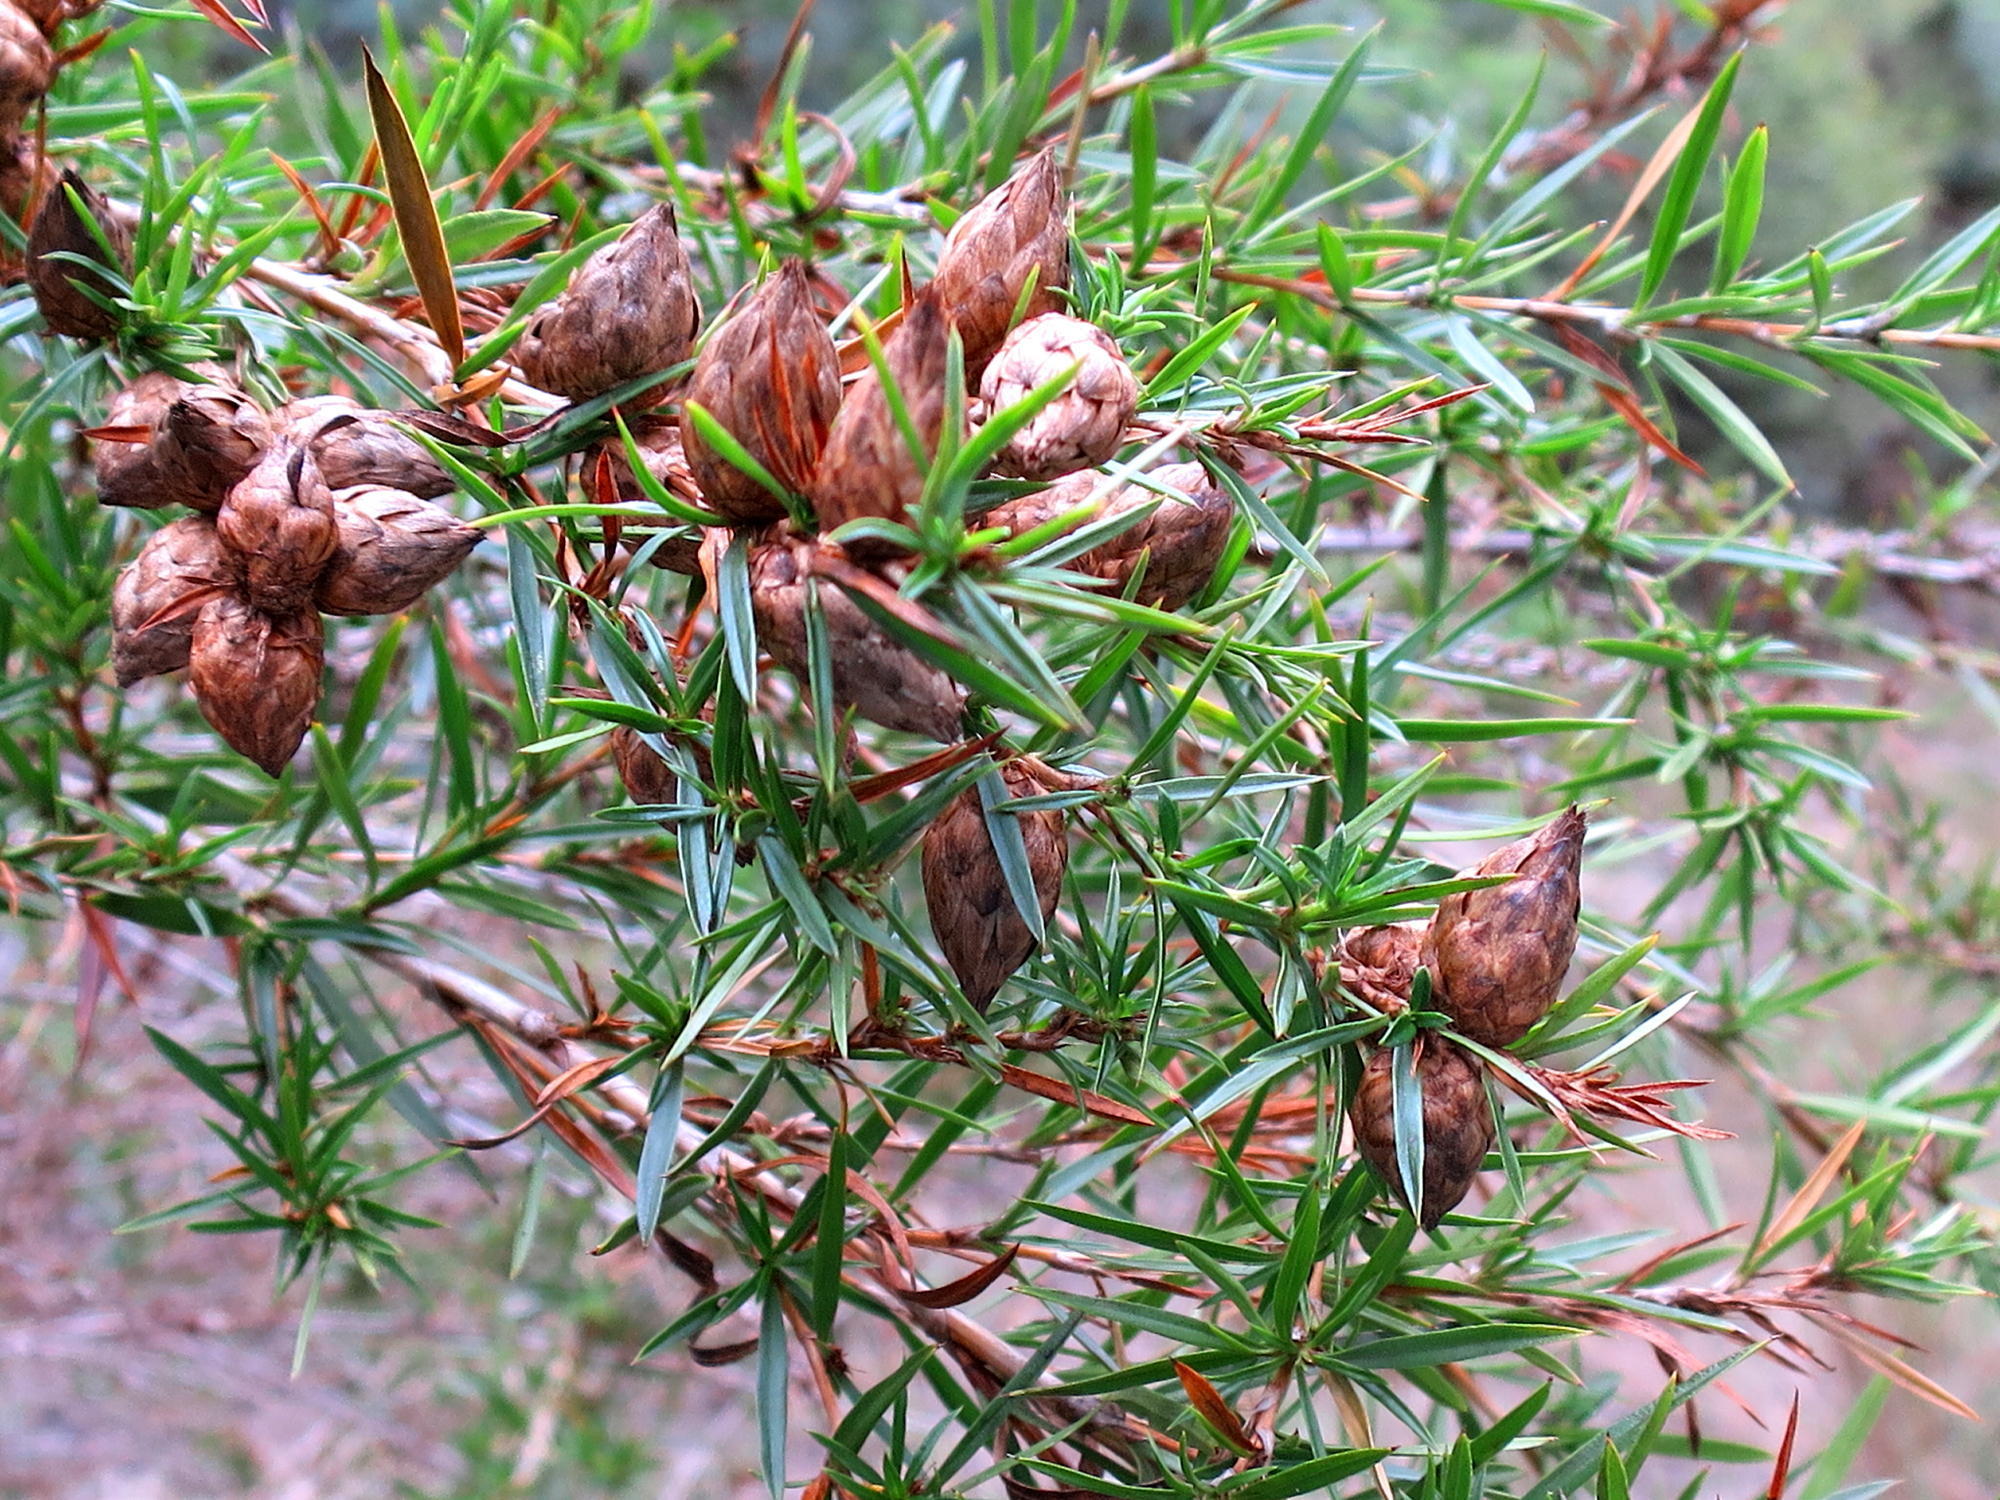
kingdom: Plantae
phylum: Tracheophyta
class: Magnoliopsida
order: Rosales
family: Rosaceae
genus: Cliffortia
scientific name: Cliffortia strobilifera
